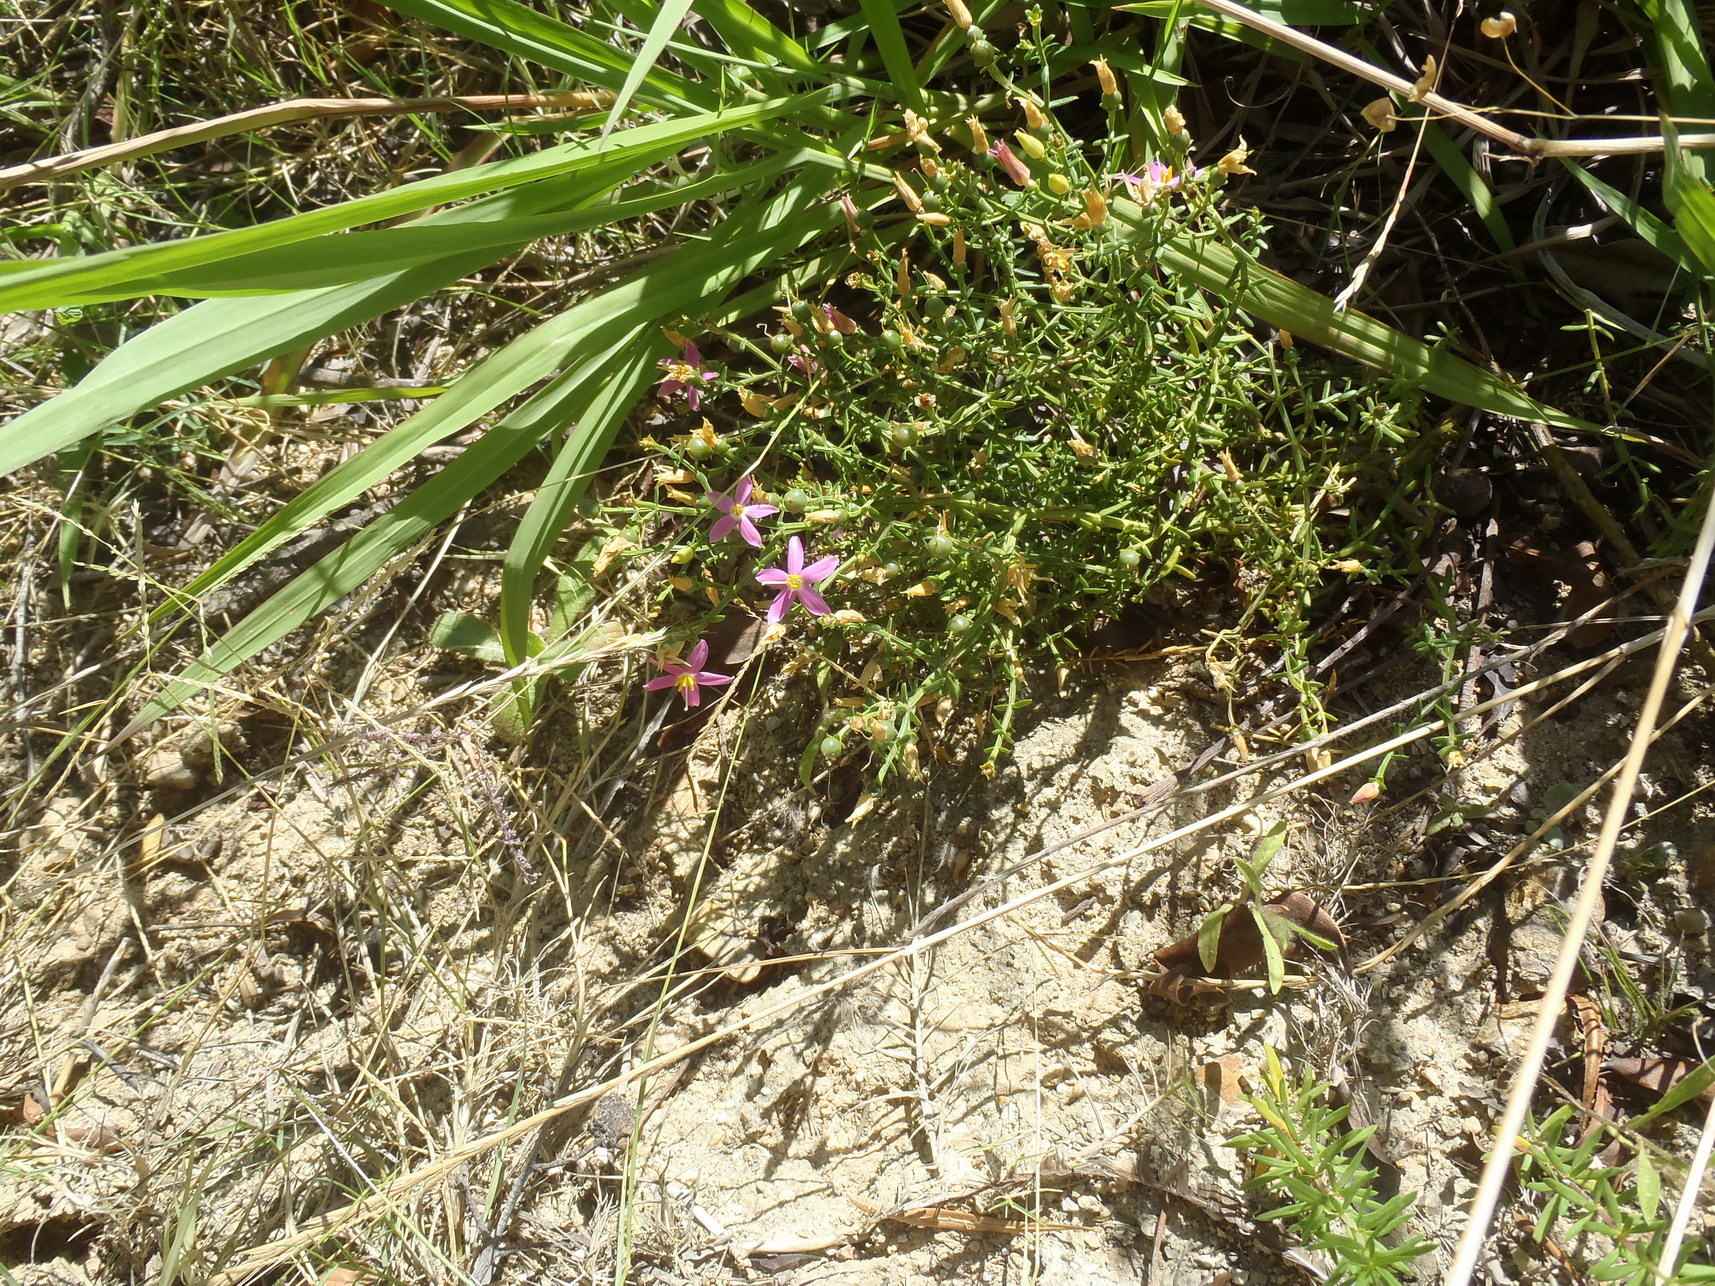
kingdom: Plantae
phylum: Tracheophyta
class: Magnoliopsida
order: Gentianales
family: Gentianaceae
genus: Chironia
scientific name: Chironia baccifera
